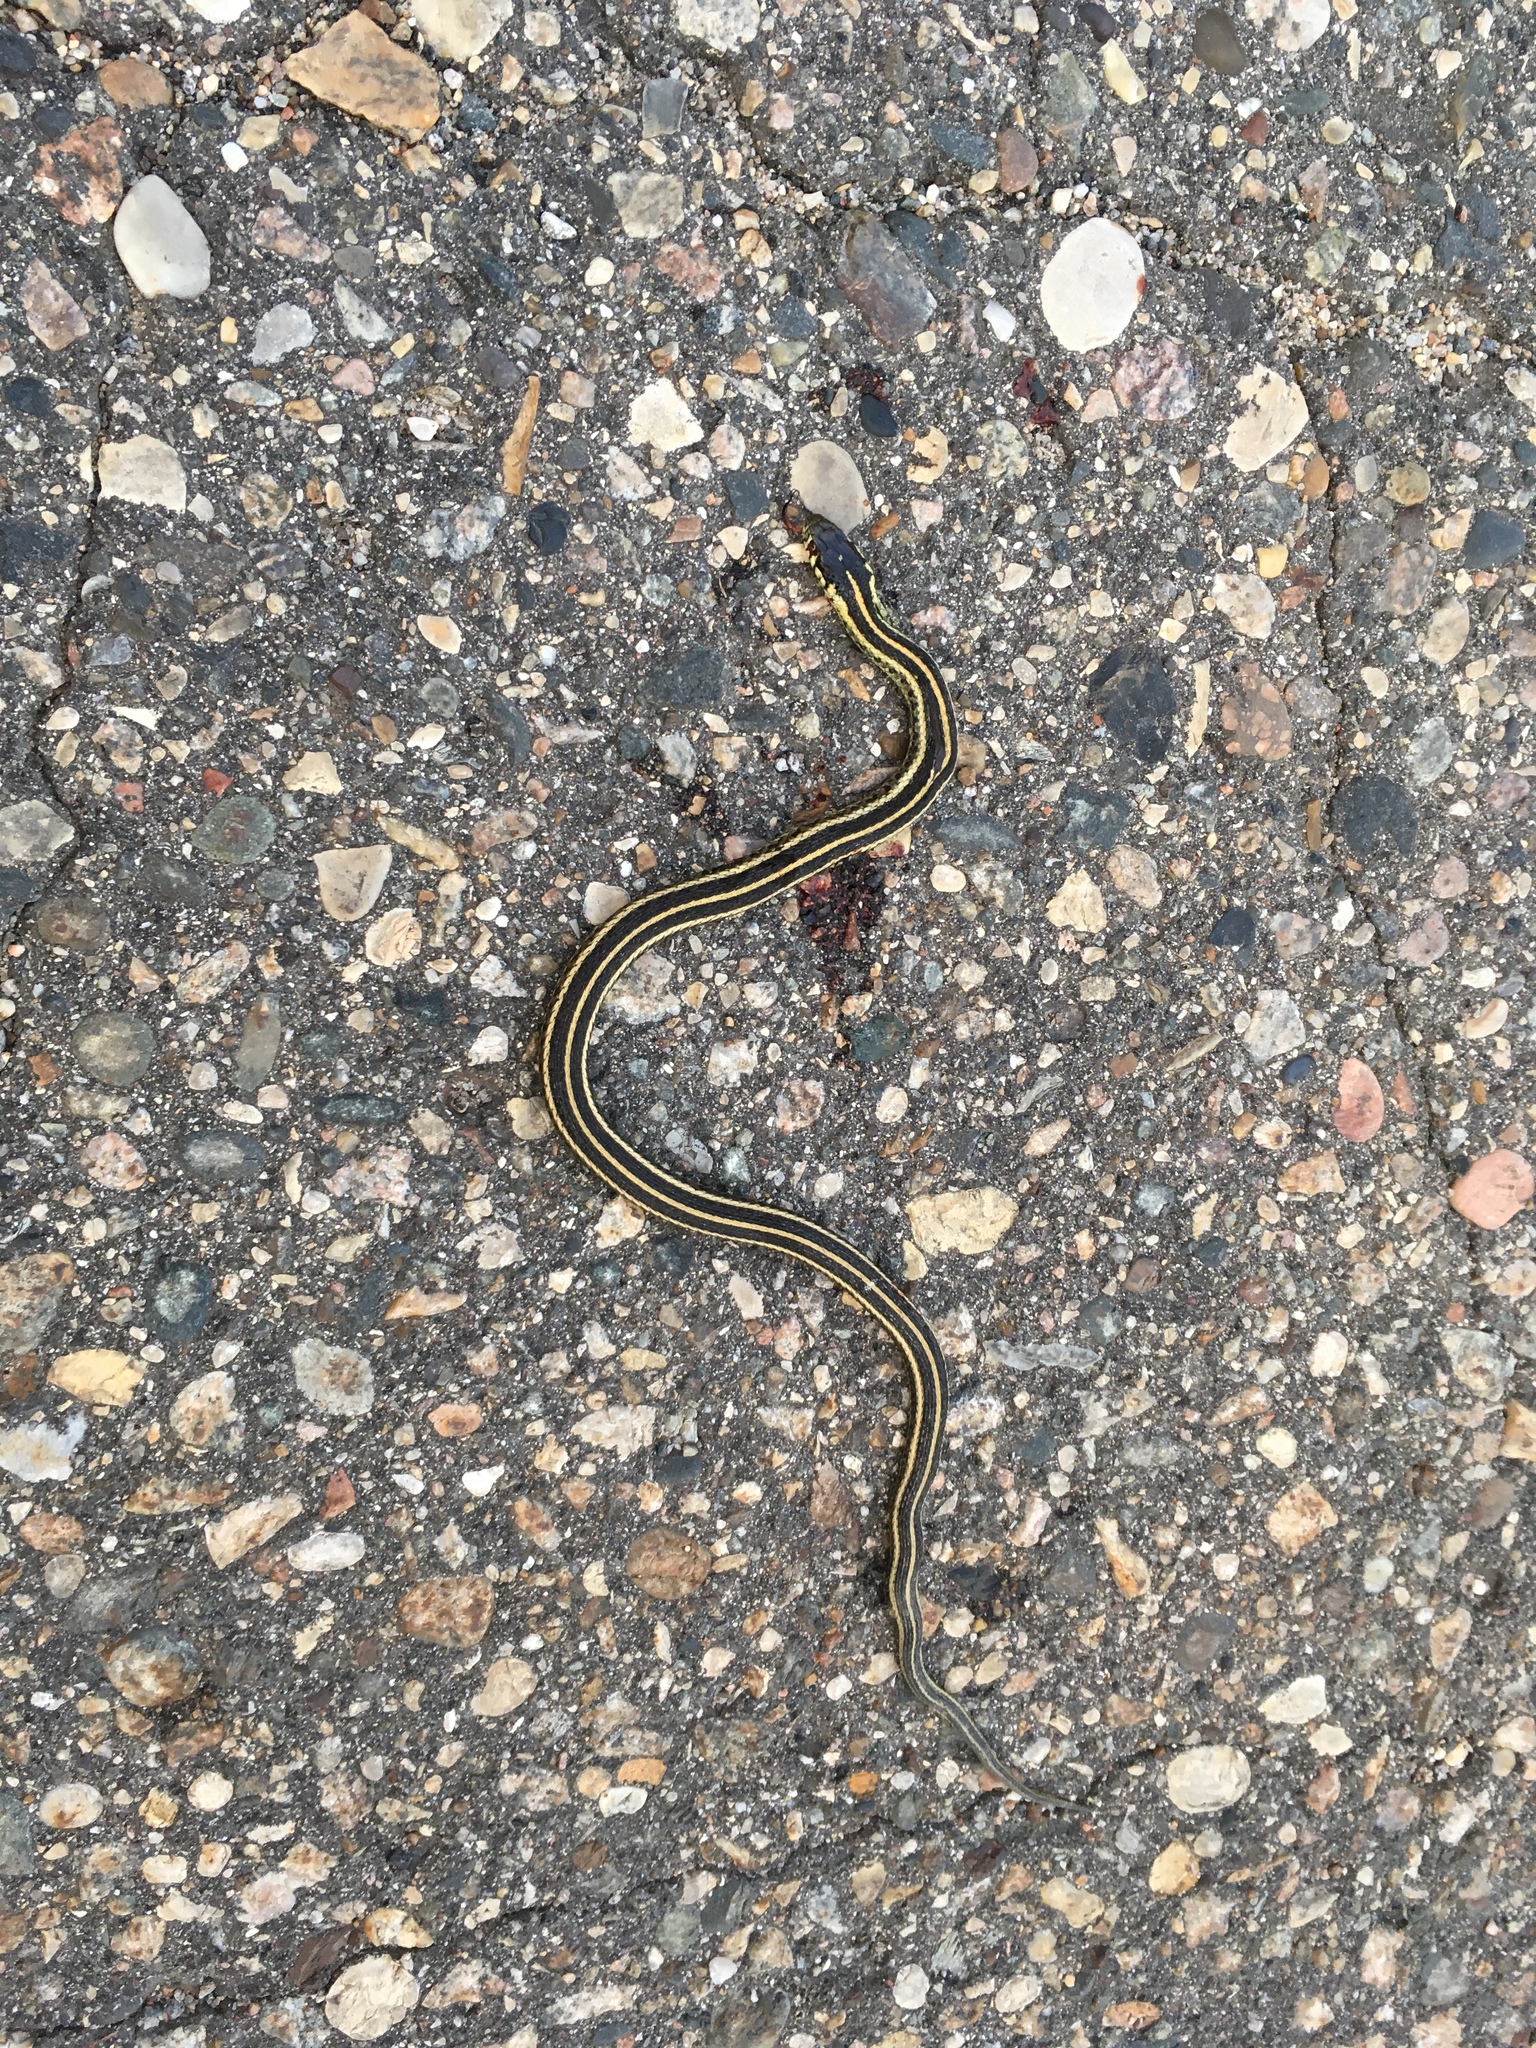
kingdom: Animalia
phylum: Chordata
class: Squamata
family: Colubridae
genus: Thamnophis
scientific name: Thamnophis radix
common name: Plains garter snake
